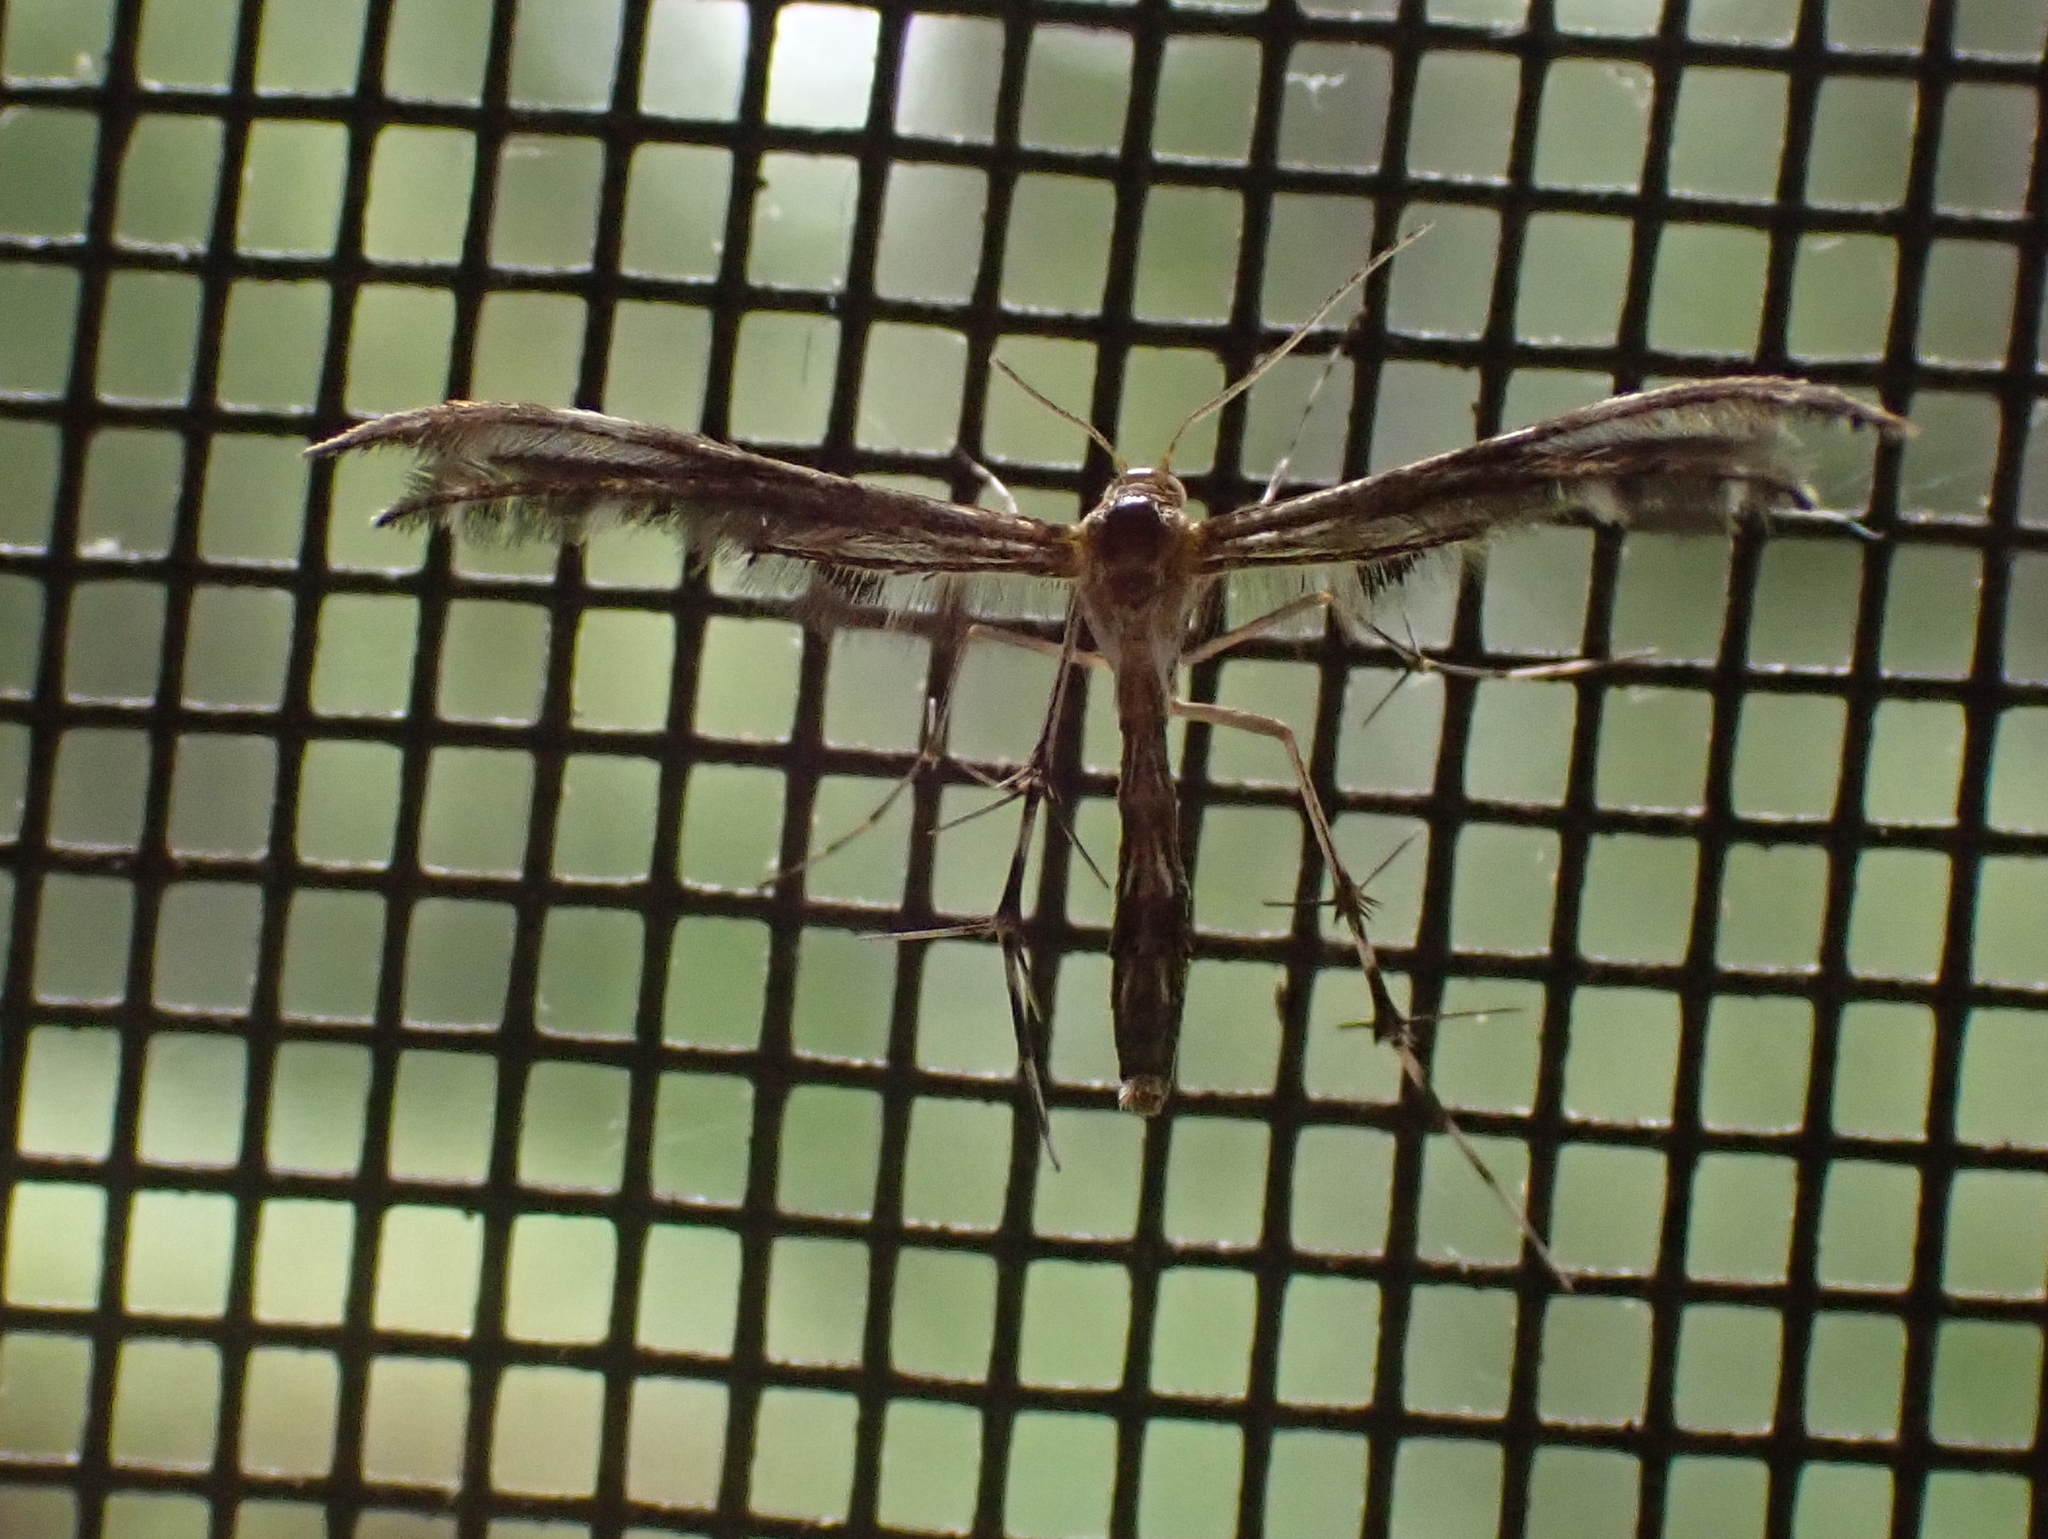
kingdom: Animalia
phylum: Arthropoda
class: Insecta
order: Lepidoptera
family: Pterophoridae
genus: Dejongia
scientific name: Dejongia lobidactylus
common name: Lobed plume moth
